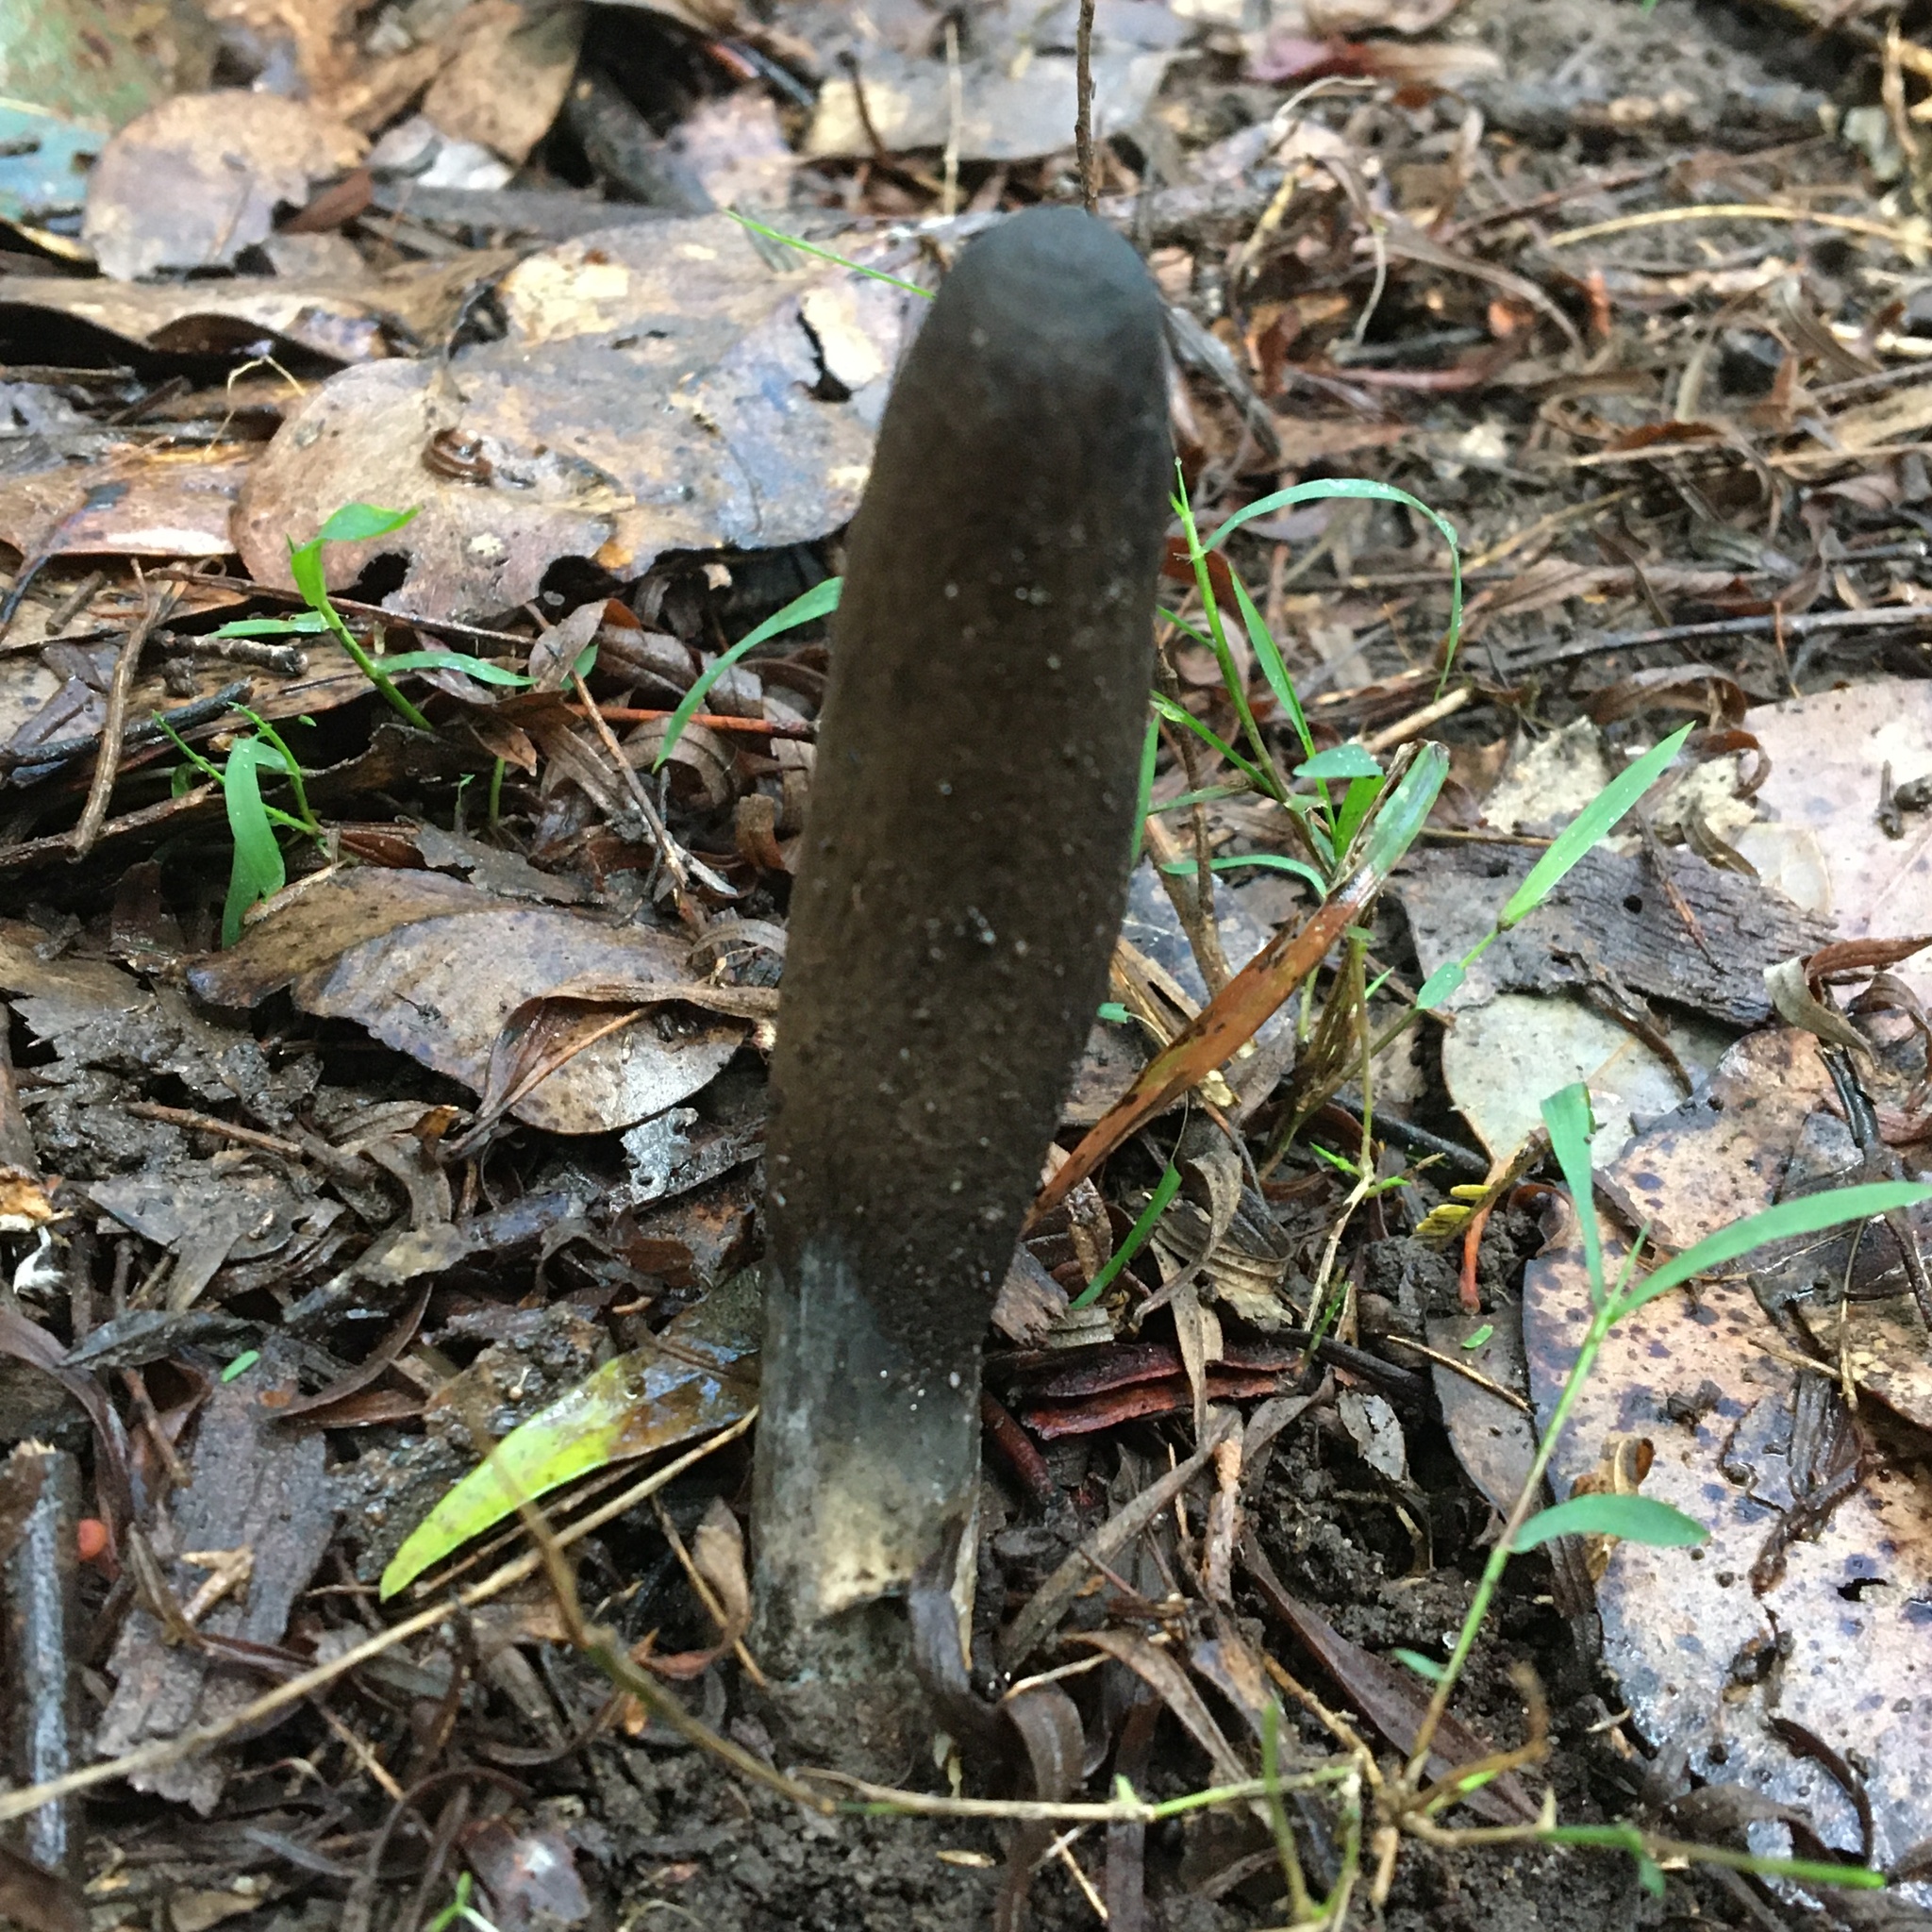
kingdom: Fungi
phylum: Ascomycota
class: Sordariomycetes
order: Hypocreales
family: Clavicipitaceae
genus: Drechmeria
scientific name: Drechmeria gunnii
